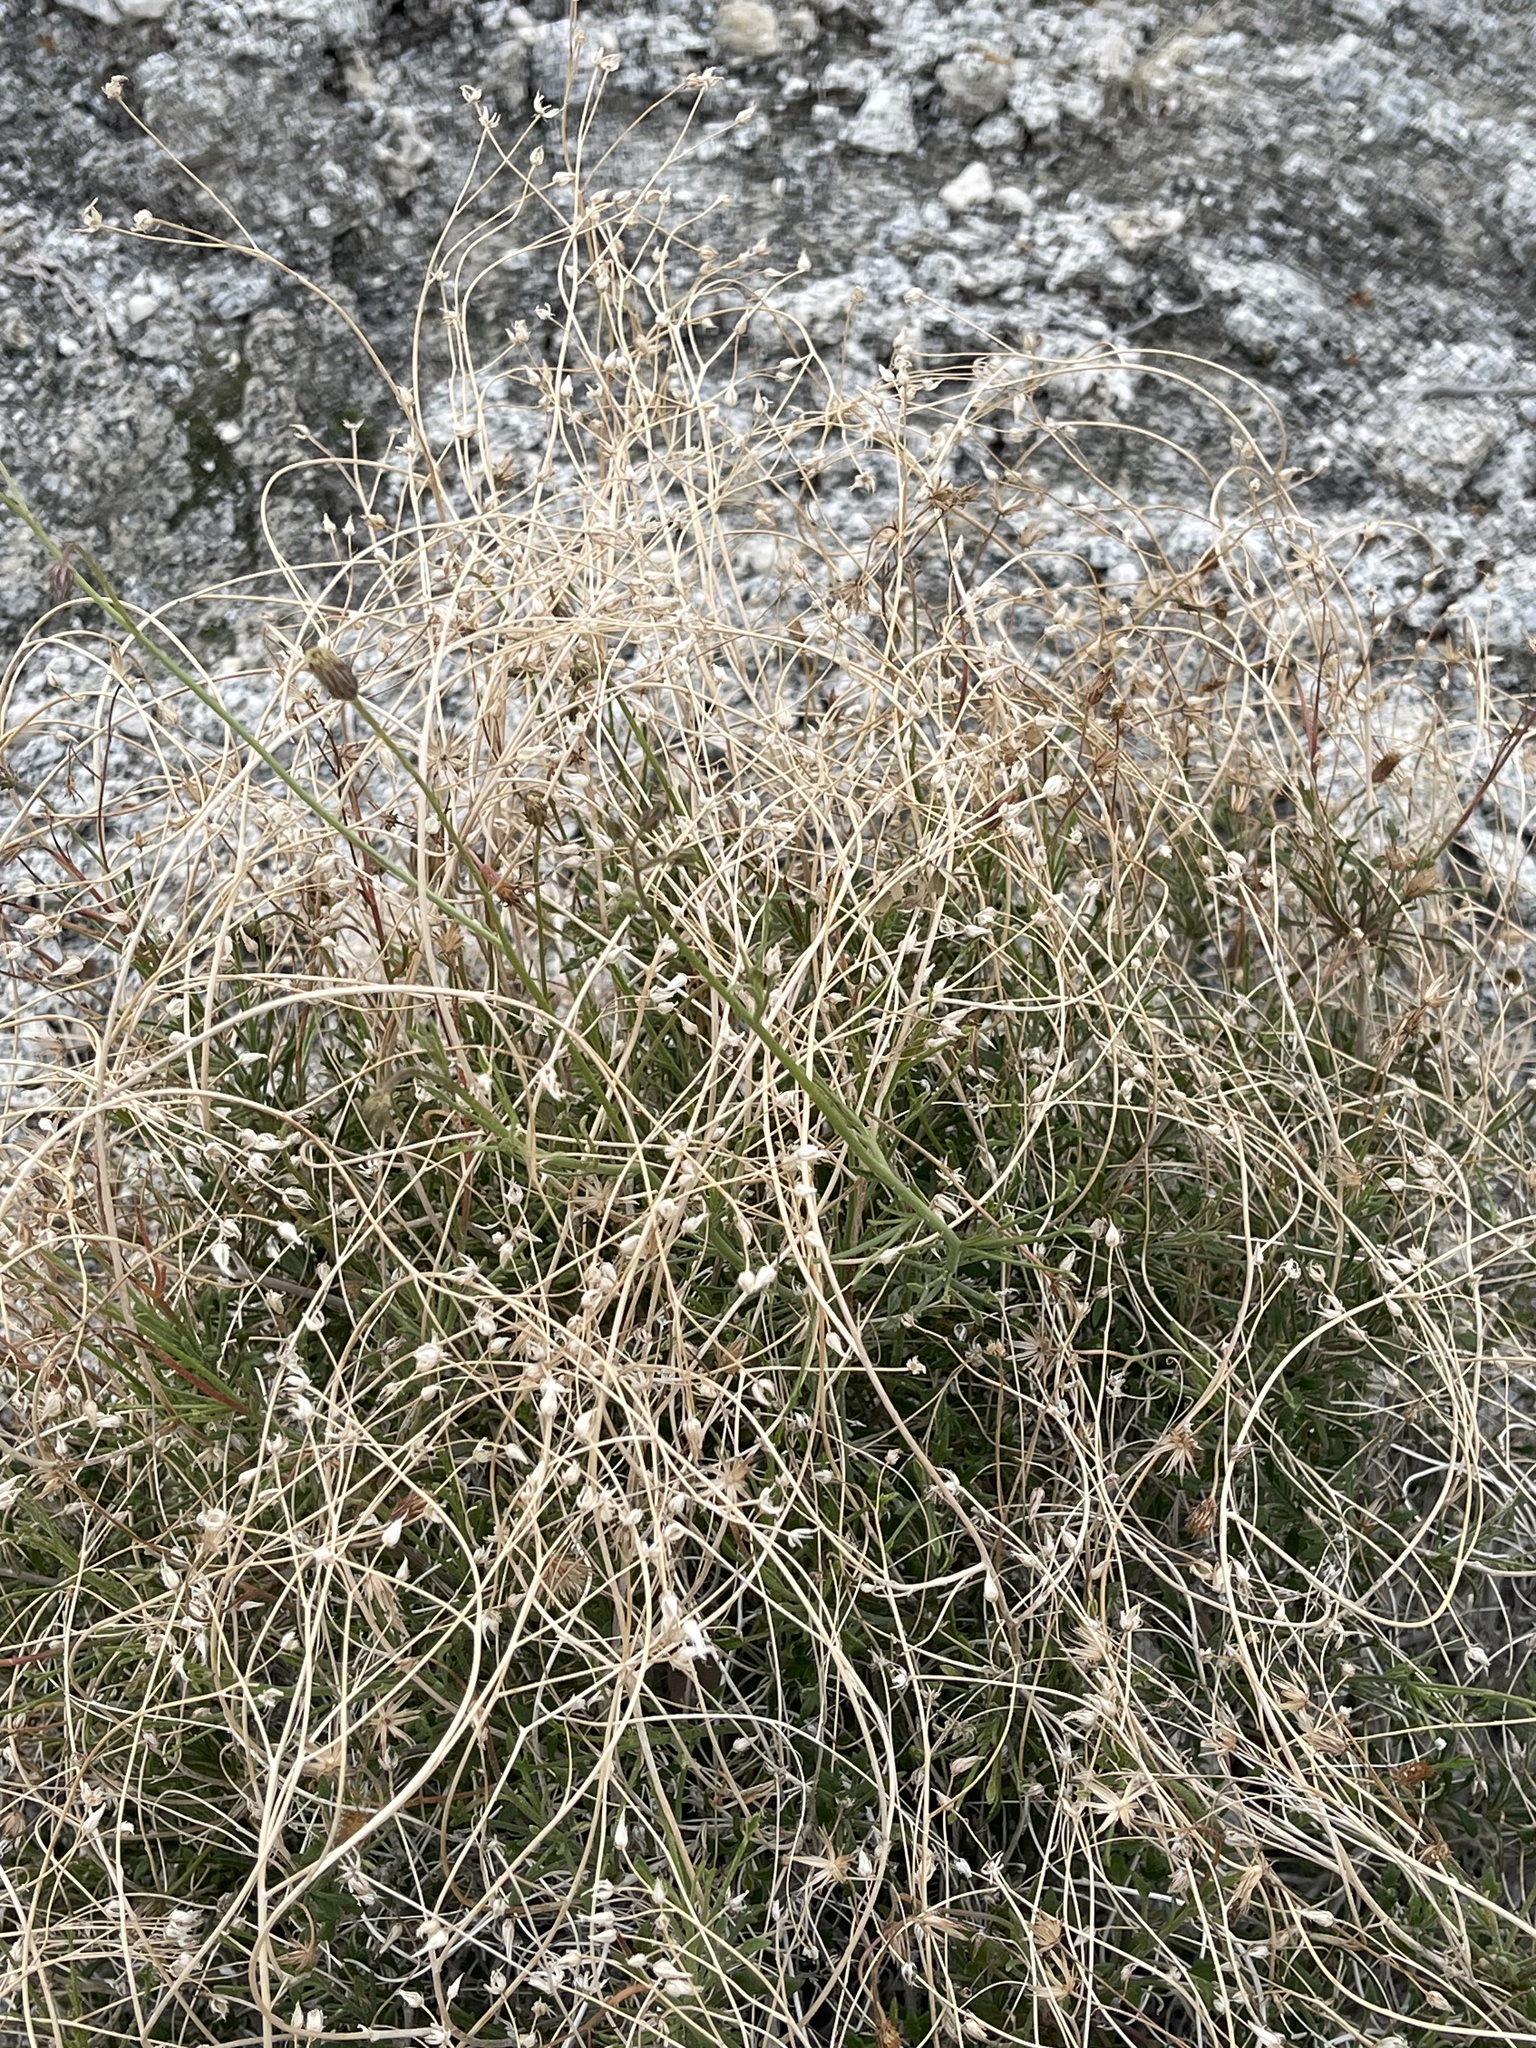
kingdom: Plantae
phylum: Tracheophyta
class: Magnoliopsida
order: Asterales
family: Asteraceae
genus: Pleurocoronis
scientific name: Pleurocoronis pluriseta
